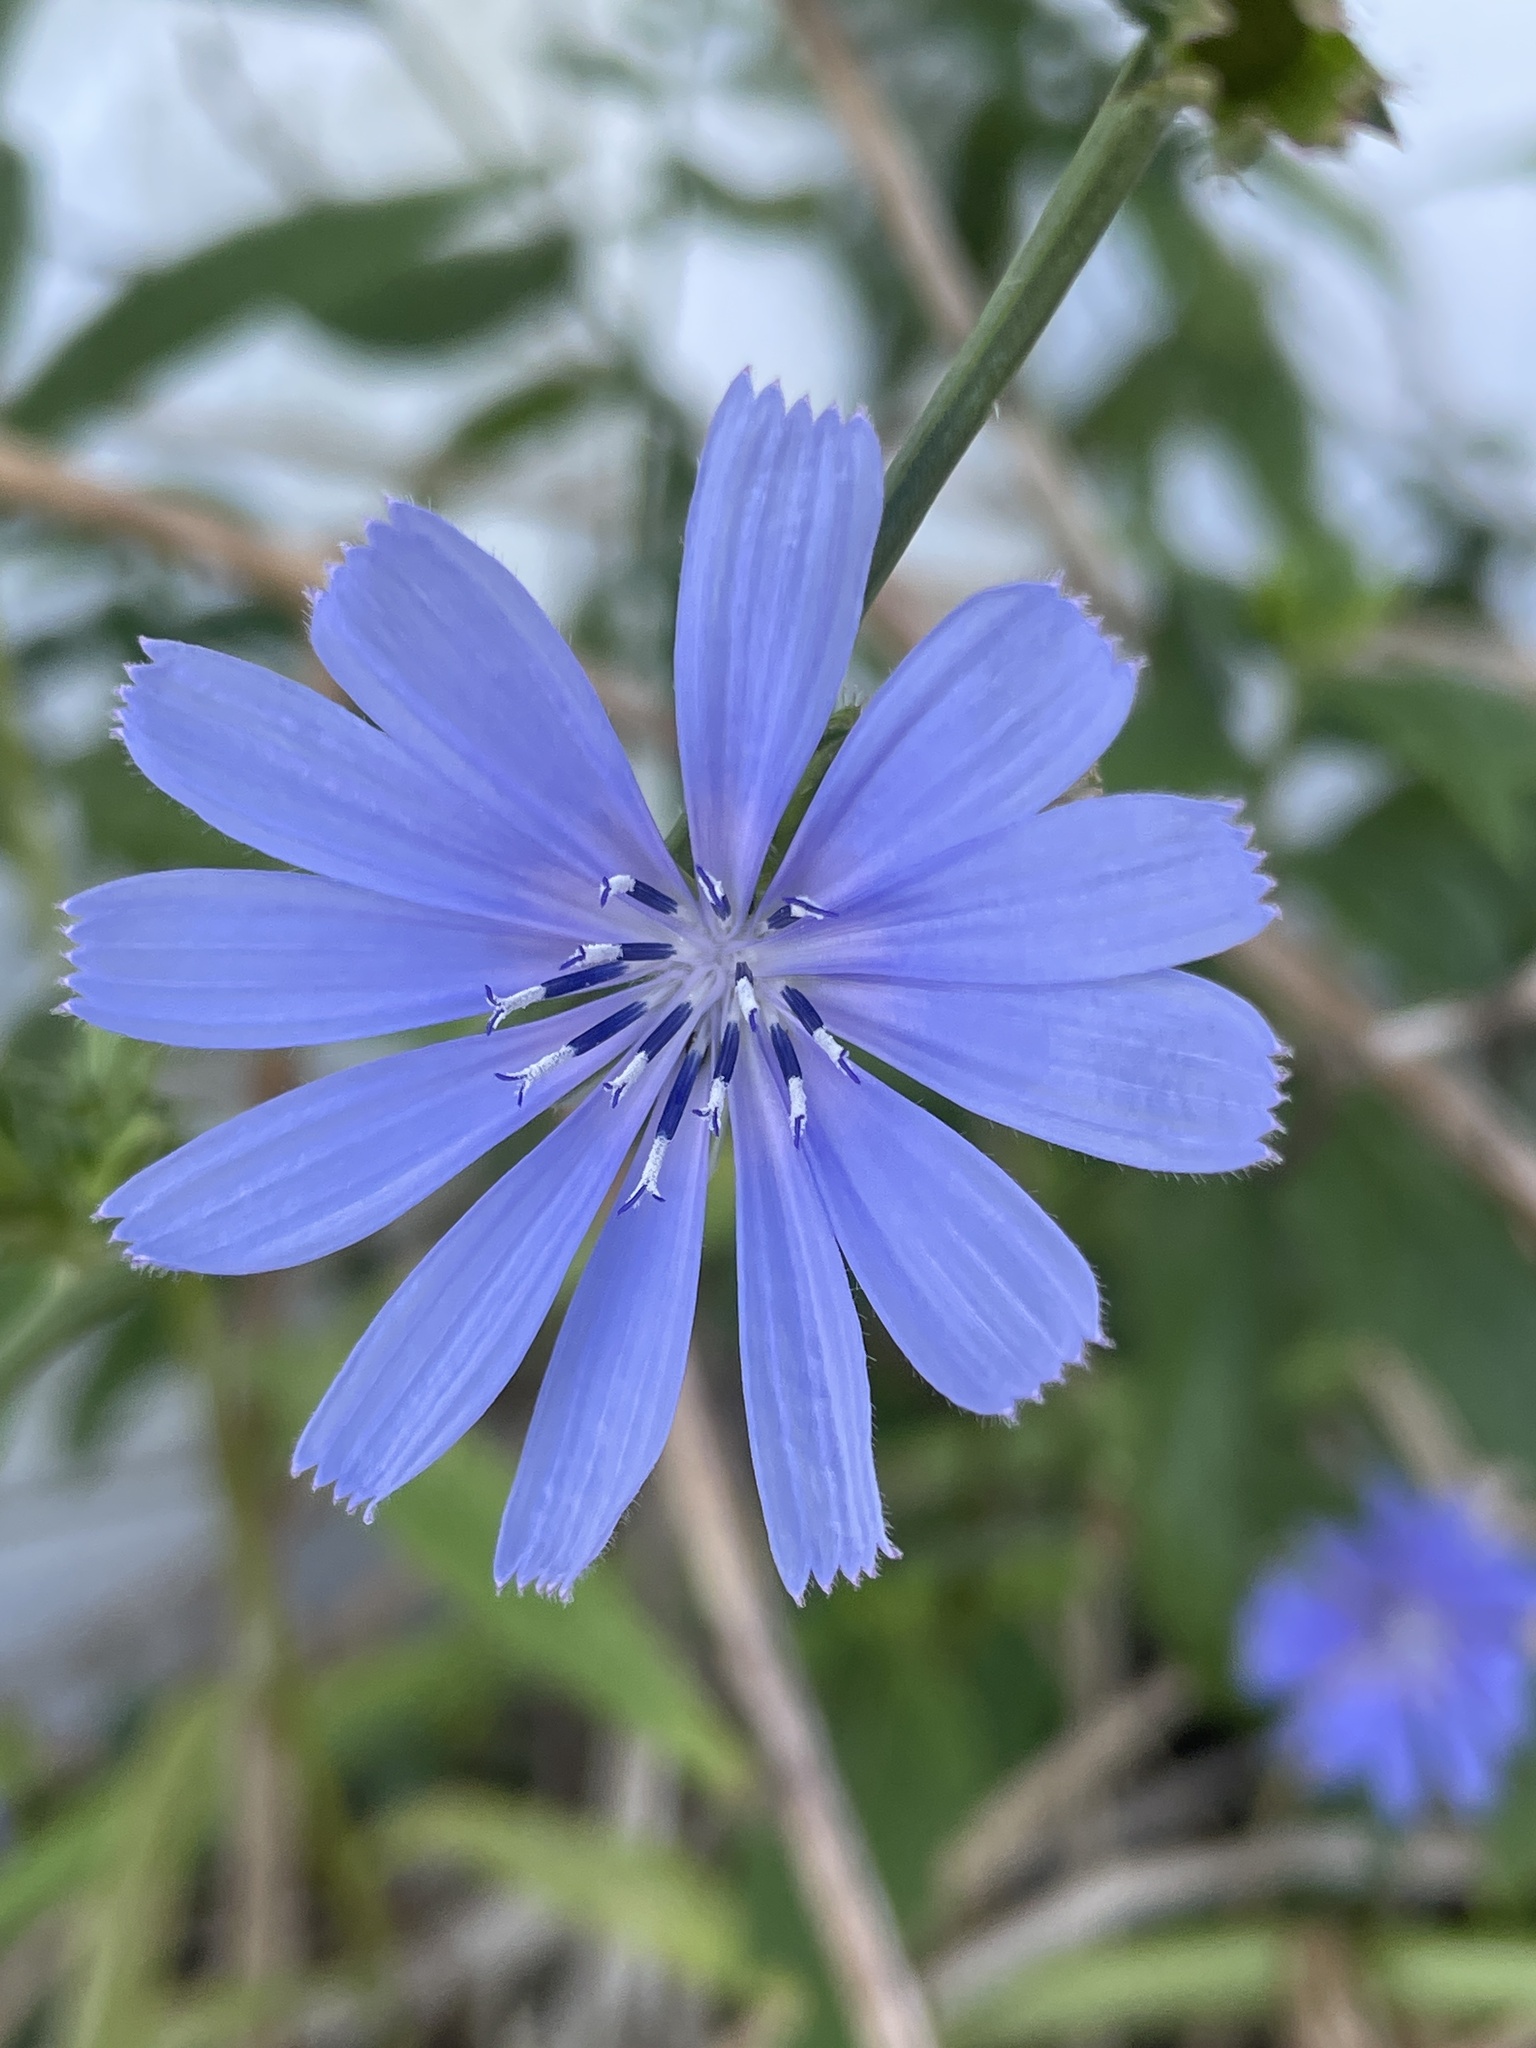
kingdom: Plantae
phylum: Tracheophyta
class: Magnoliopsida
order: Asterales
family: Asteraceae
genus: Cichorium
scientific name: Cichorium intybus
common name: Chicory
